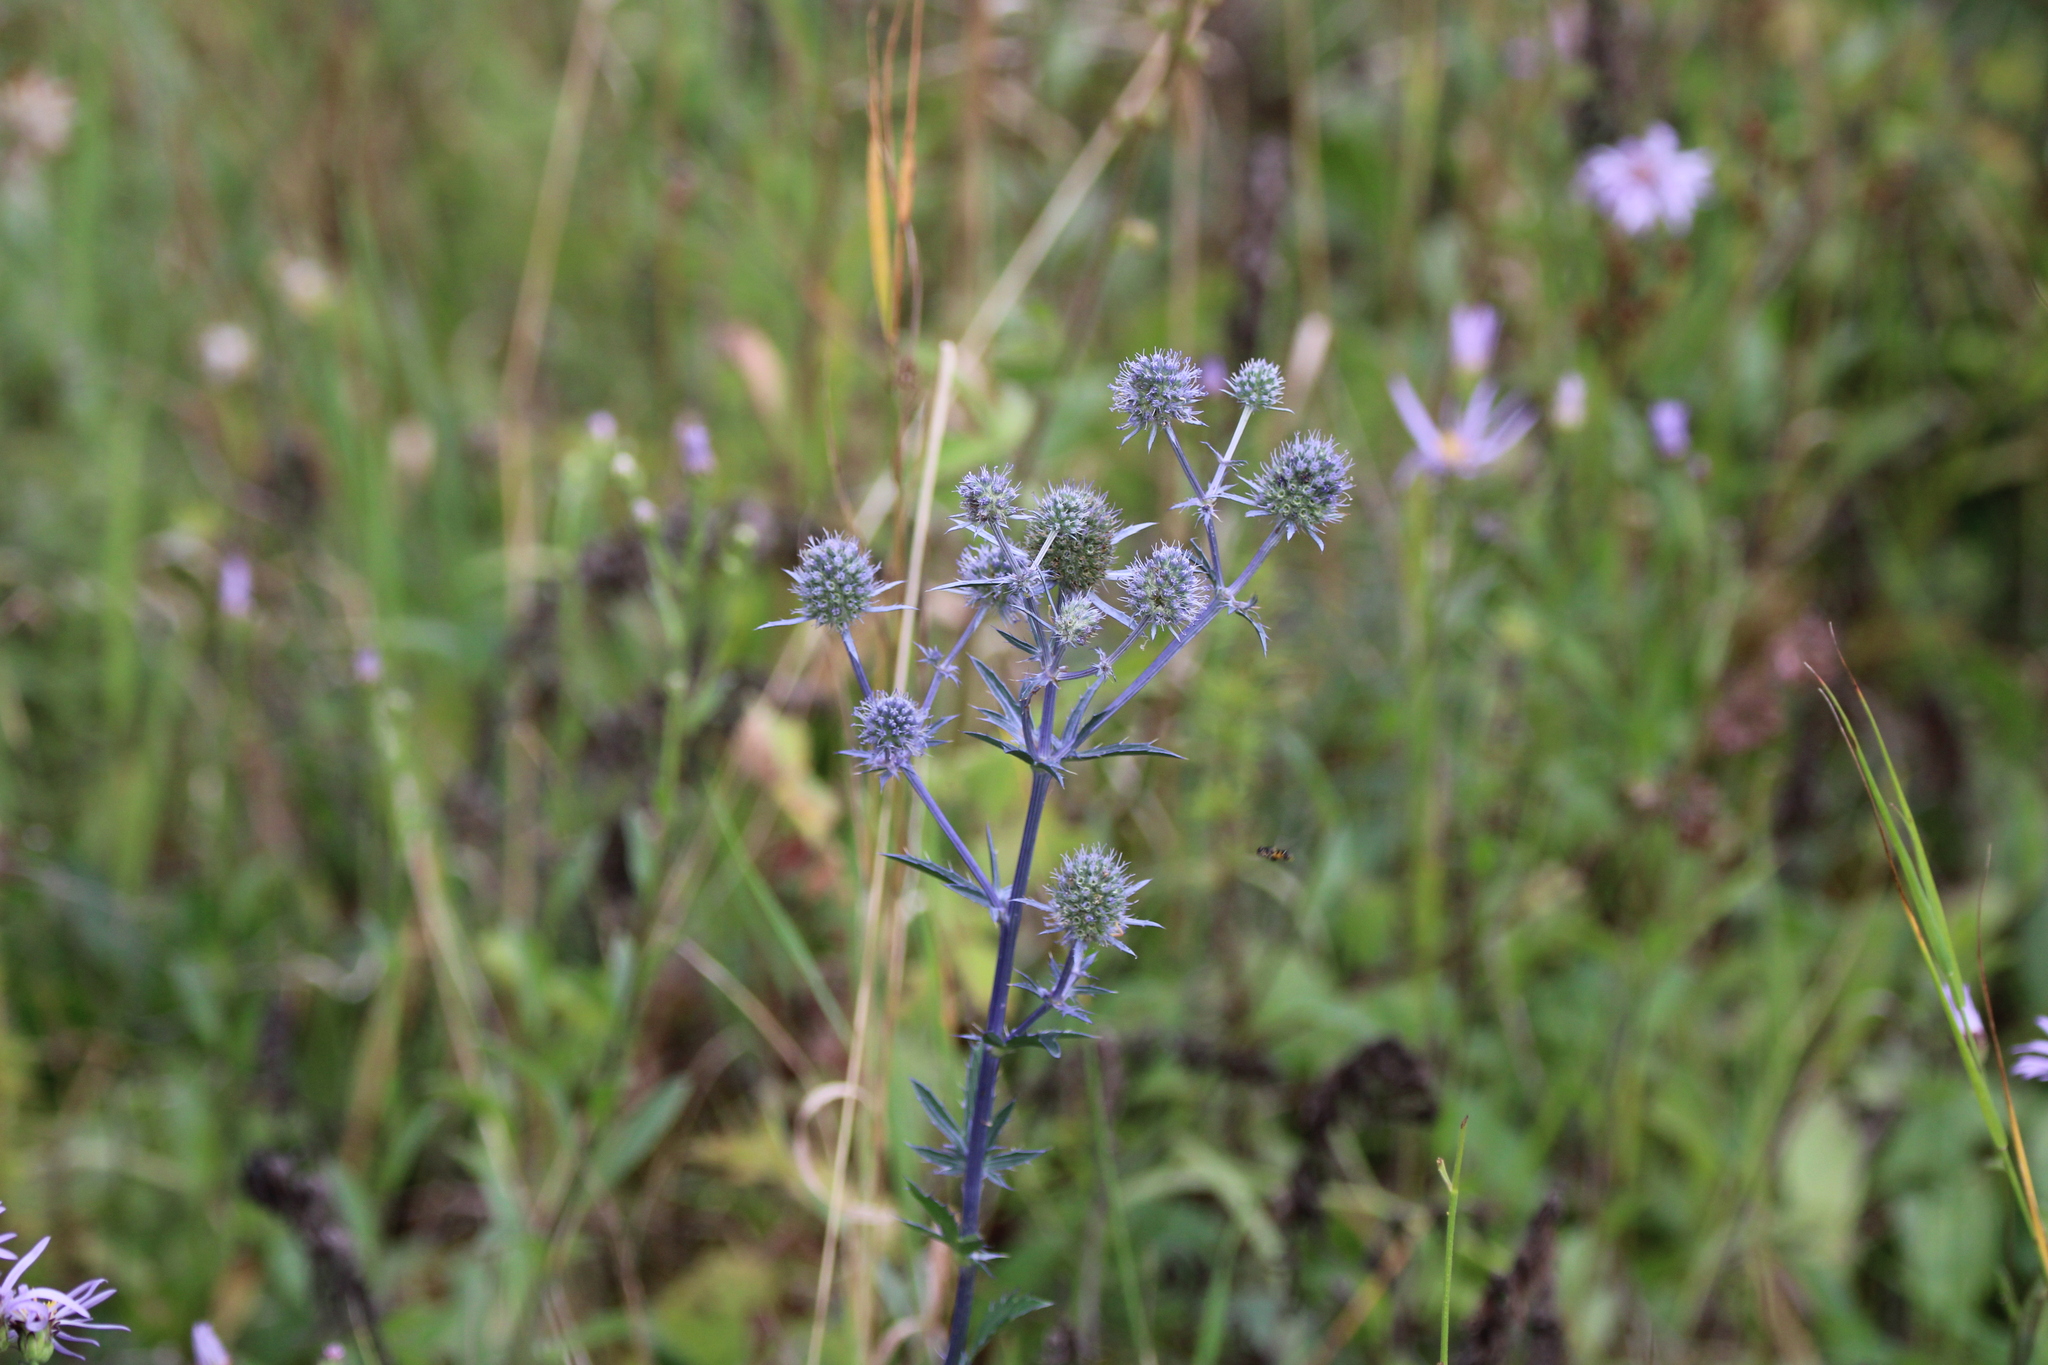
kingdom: Plantae
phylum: Tracheophyta
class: Magnoliopsida
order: Apiales
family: Apiaceae
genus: Eryngium
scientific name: Eryngium planum
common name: Blue eryngo
